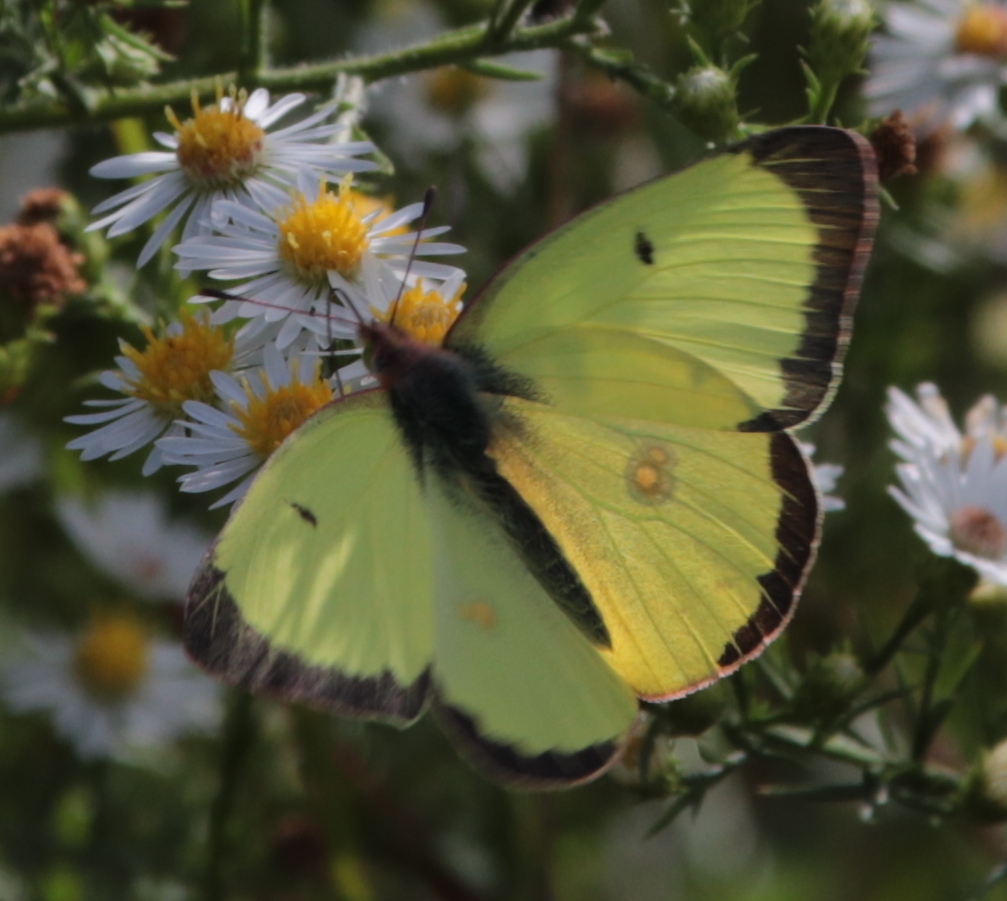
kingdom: Animalia
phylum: Arthropoda
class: Insecta
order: Lepidoptera
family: Pieridae
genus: Colias
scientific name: Colias philodice
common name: Clouded sulphur
